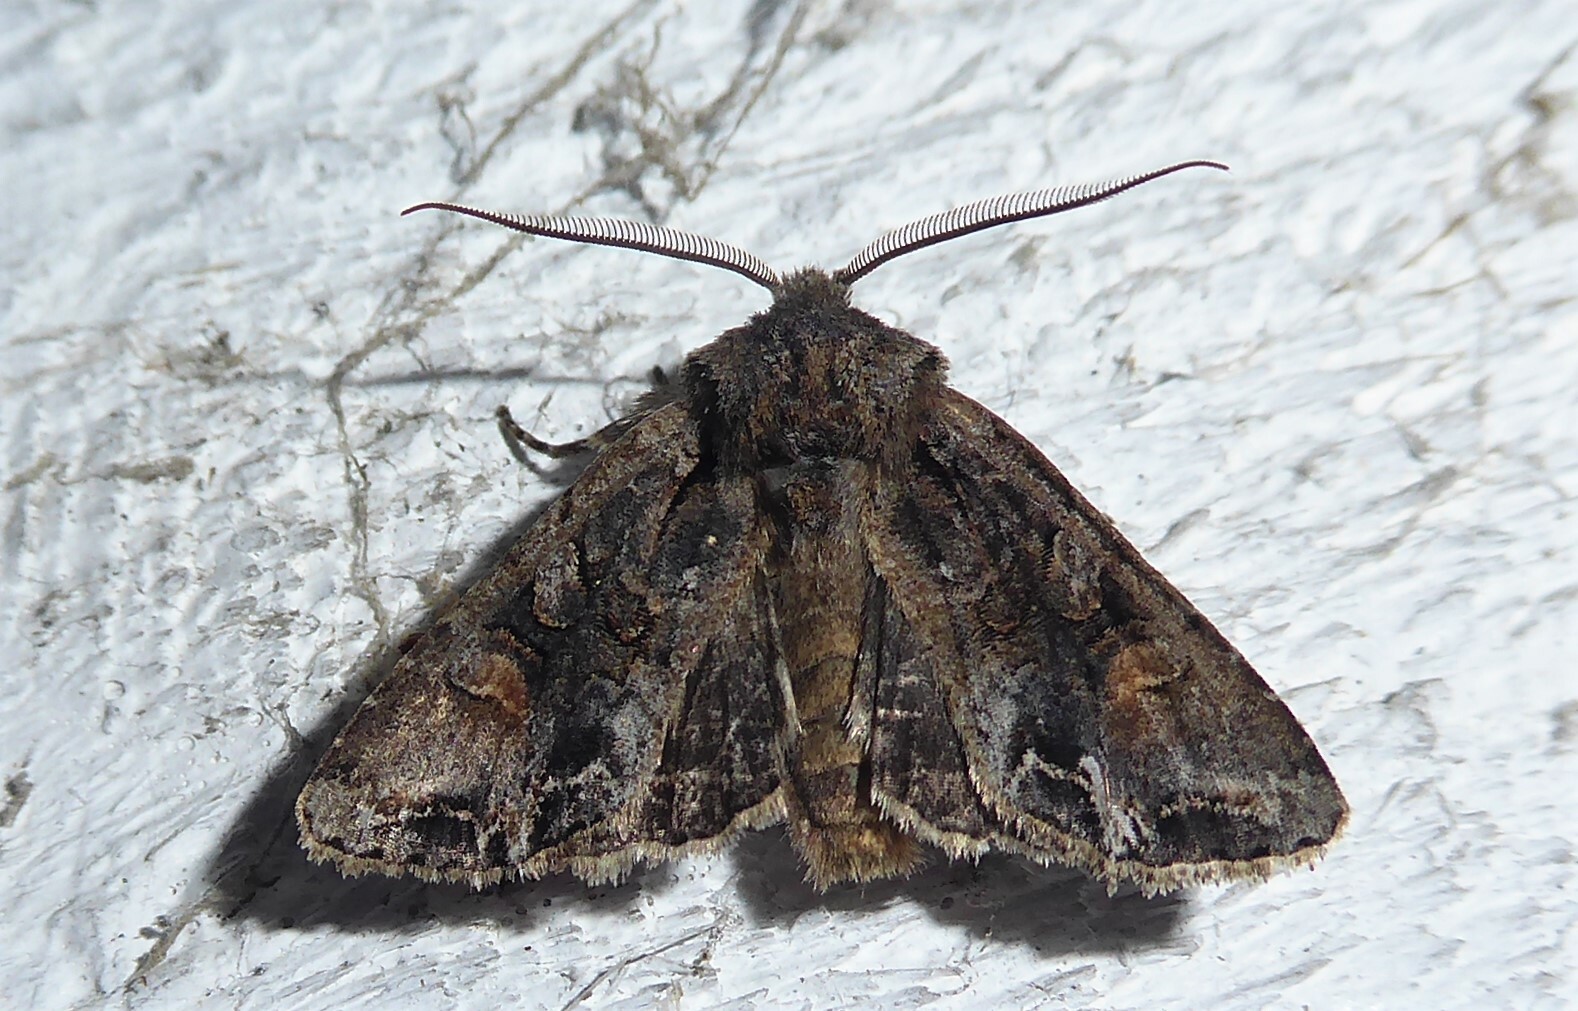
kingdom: Animalia
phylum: Arthropoda
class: Insecta
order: Lepidoptera
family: Noctuidae
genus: Ichneutica
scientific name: Ichneutica skelloni
